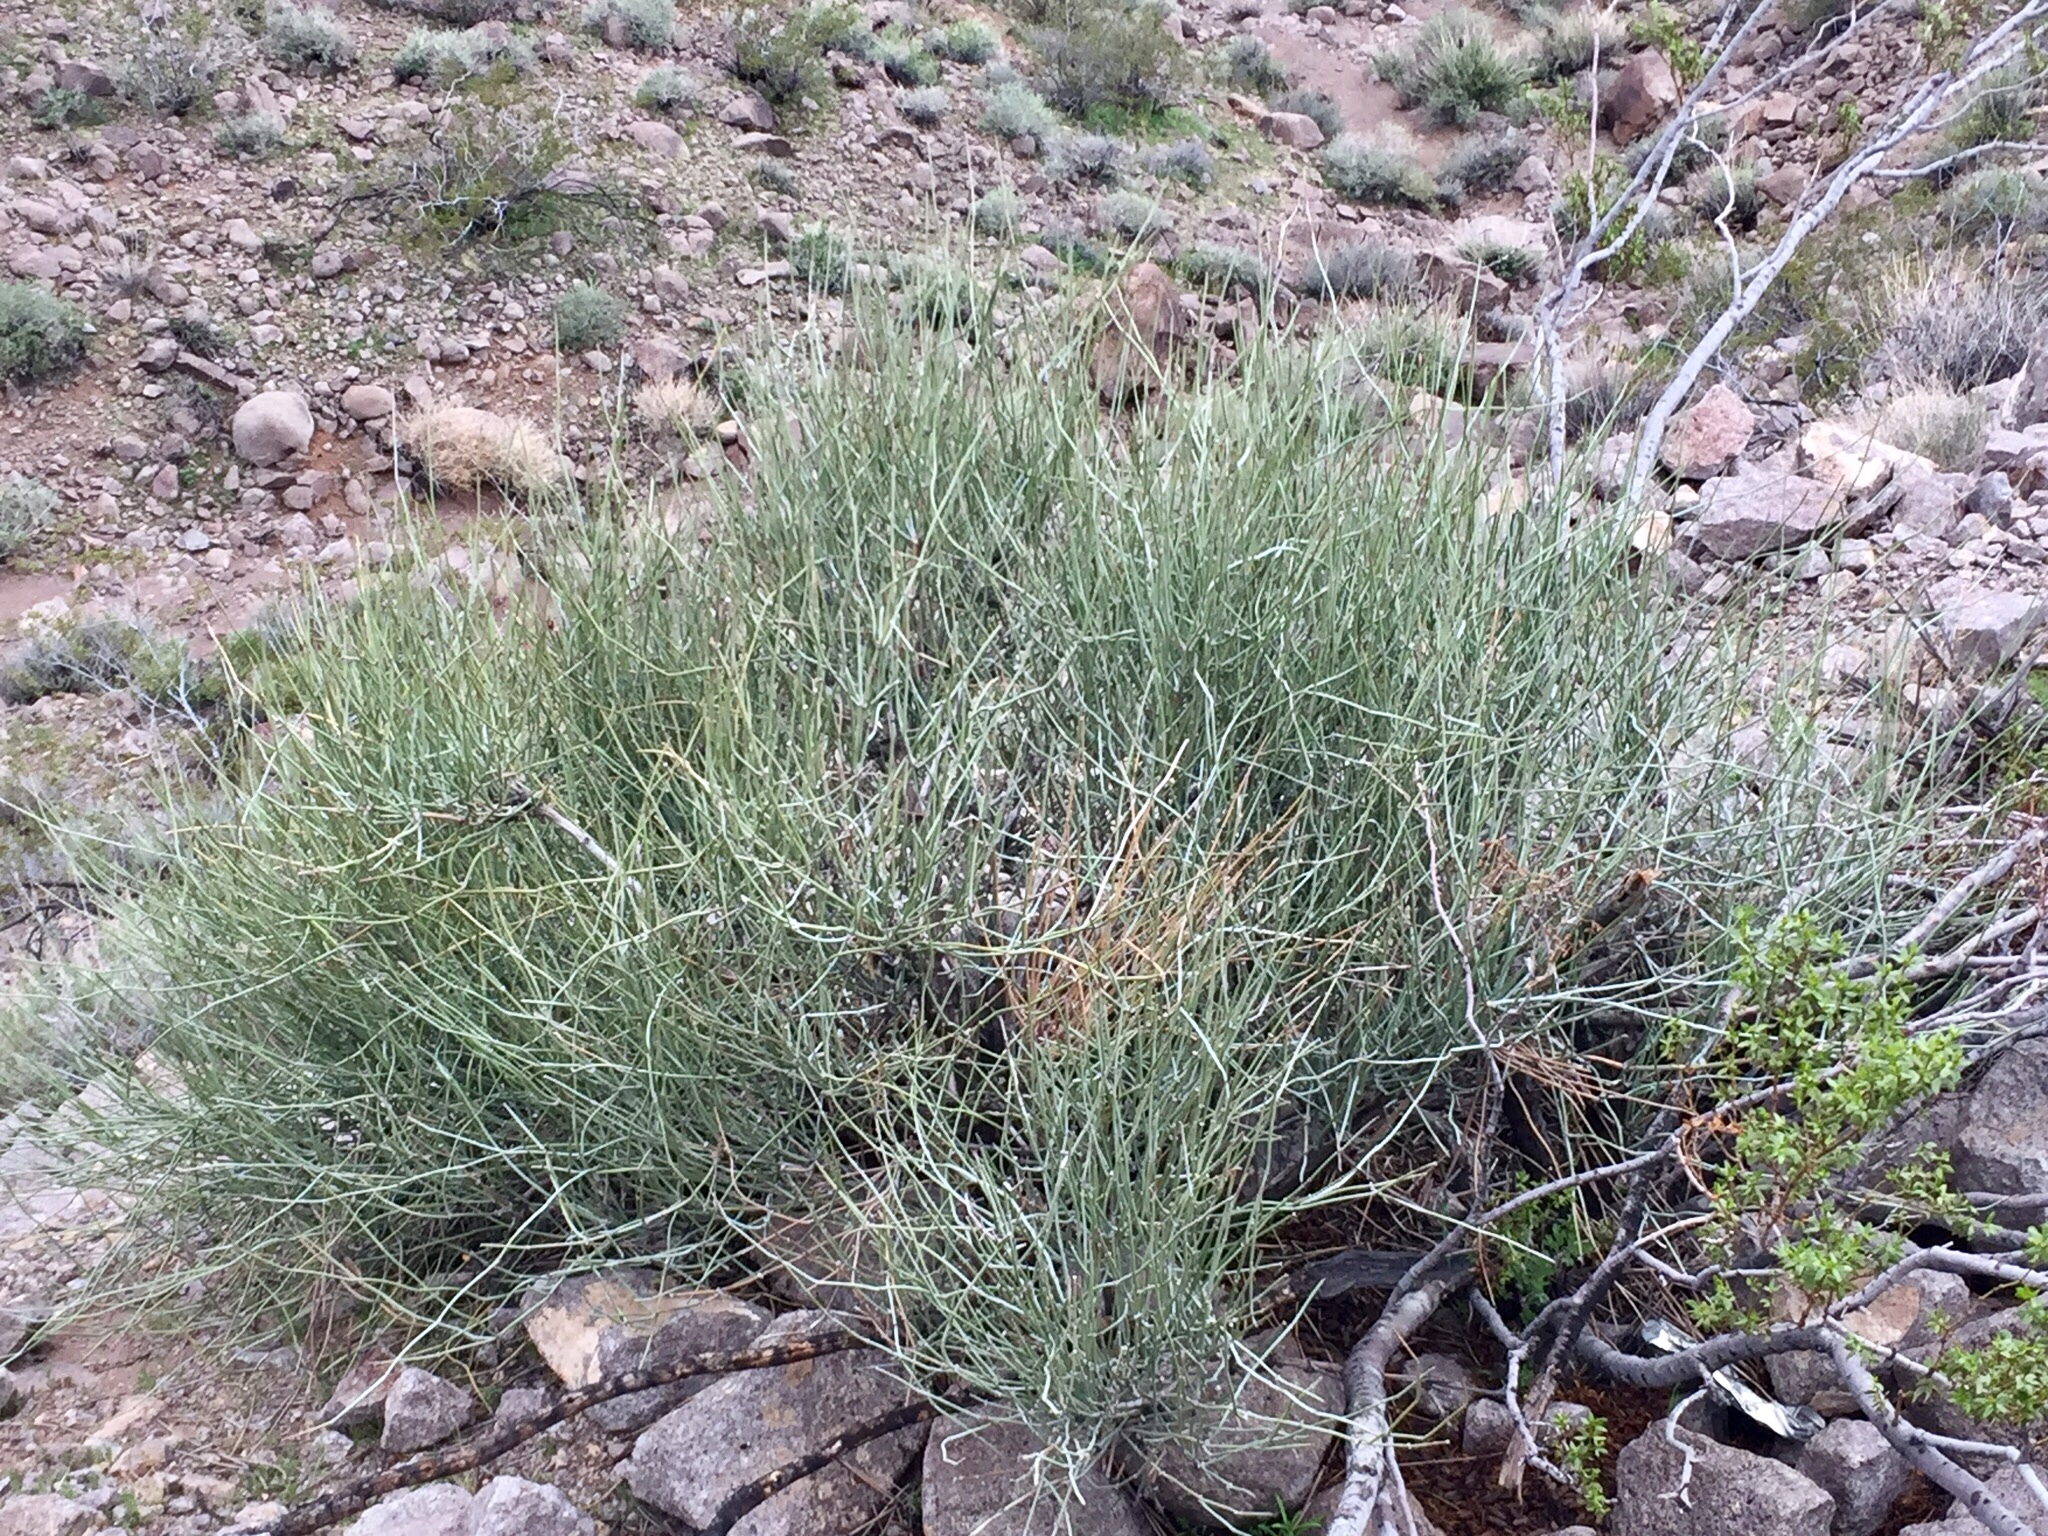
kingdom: Plantae
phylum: Tracheophyta
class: Gnetopsida
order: Ephedrales
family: Ephedraceae
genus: Ephedra
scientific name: Ephedra nevadensis
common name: Gray ephedra
